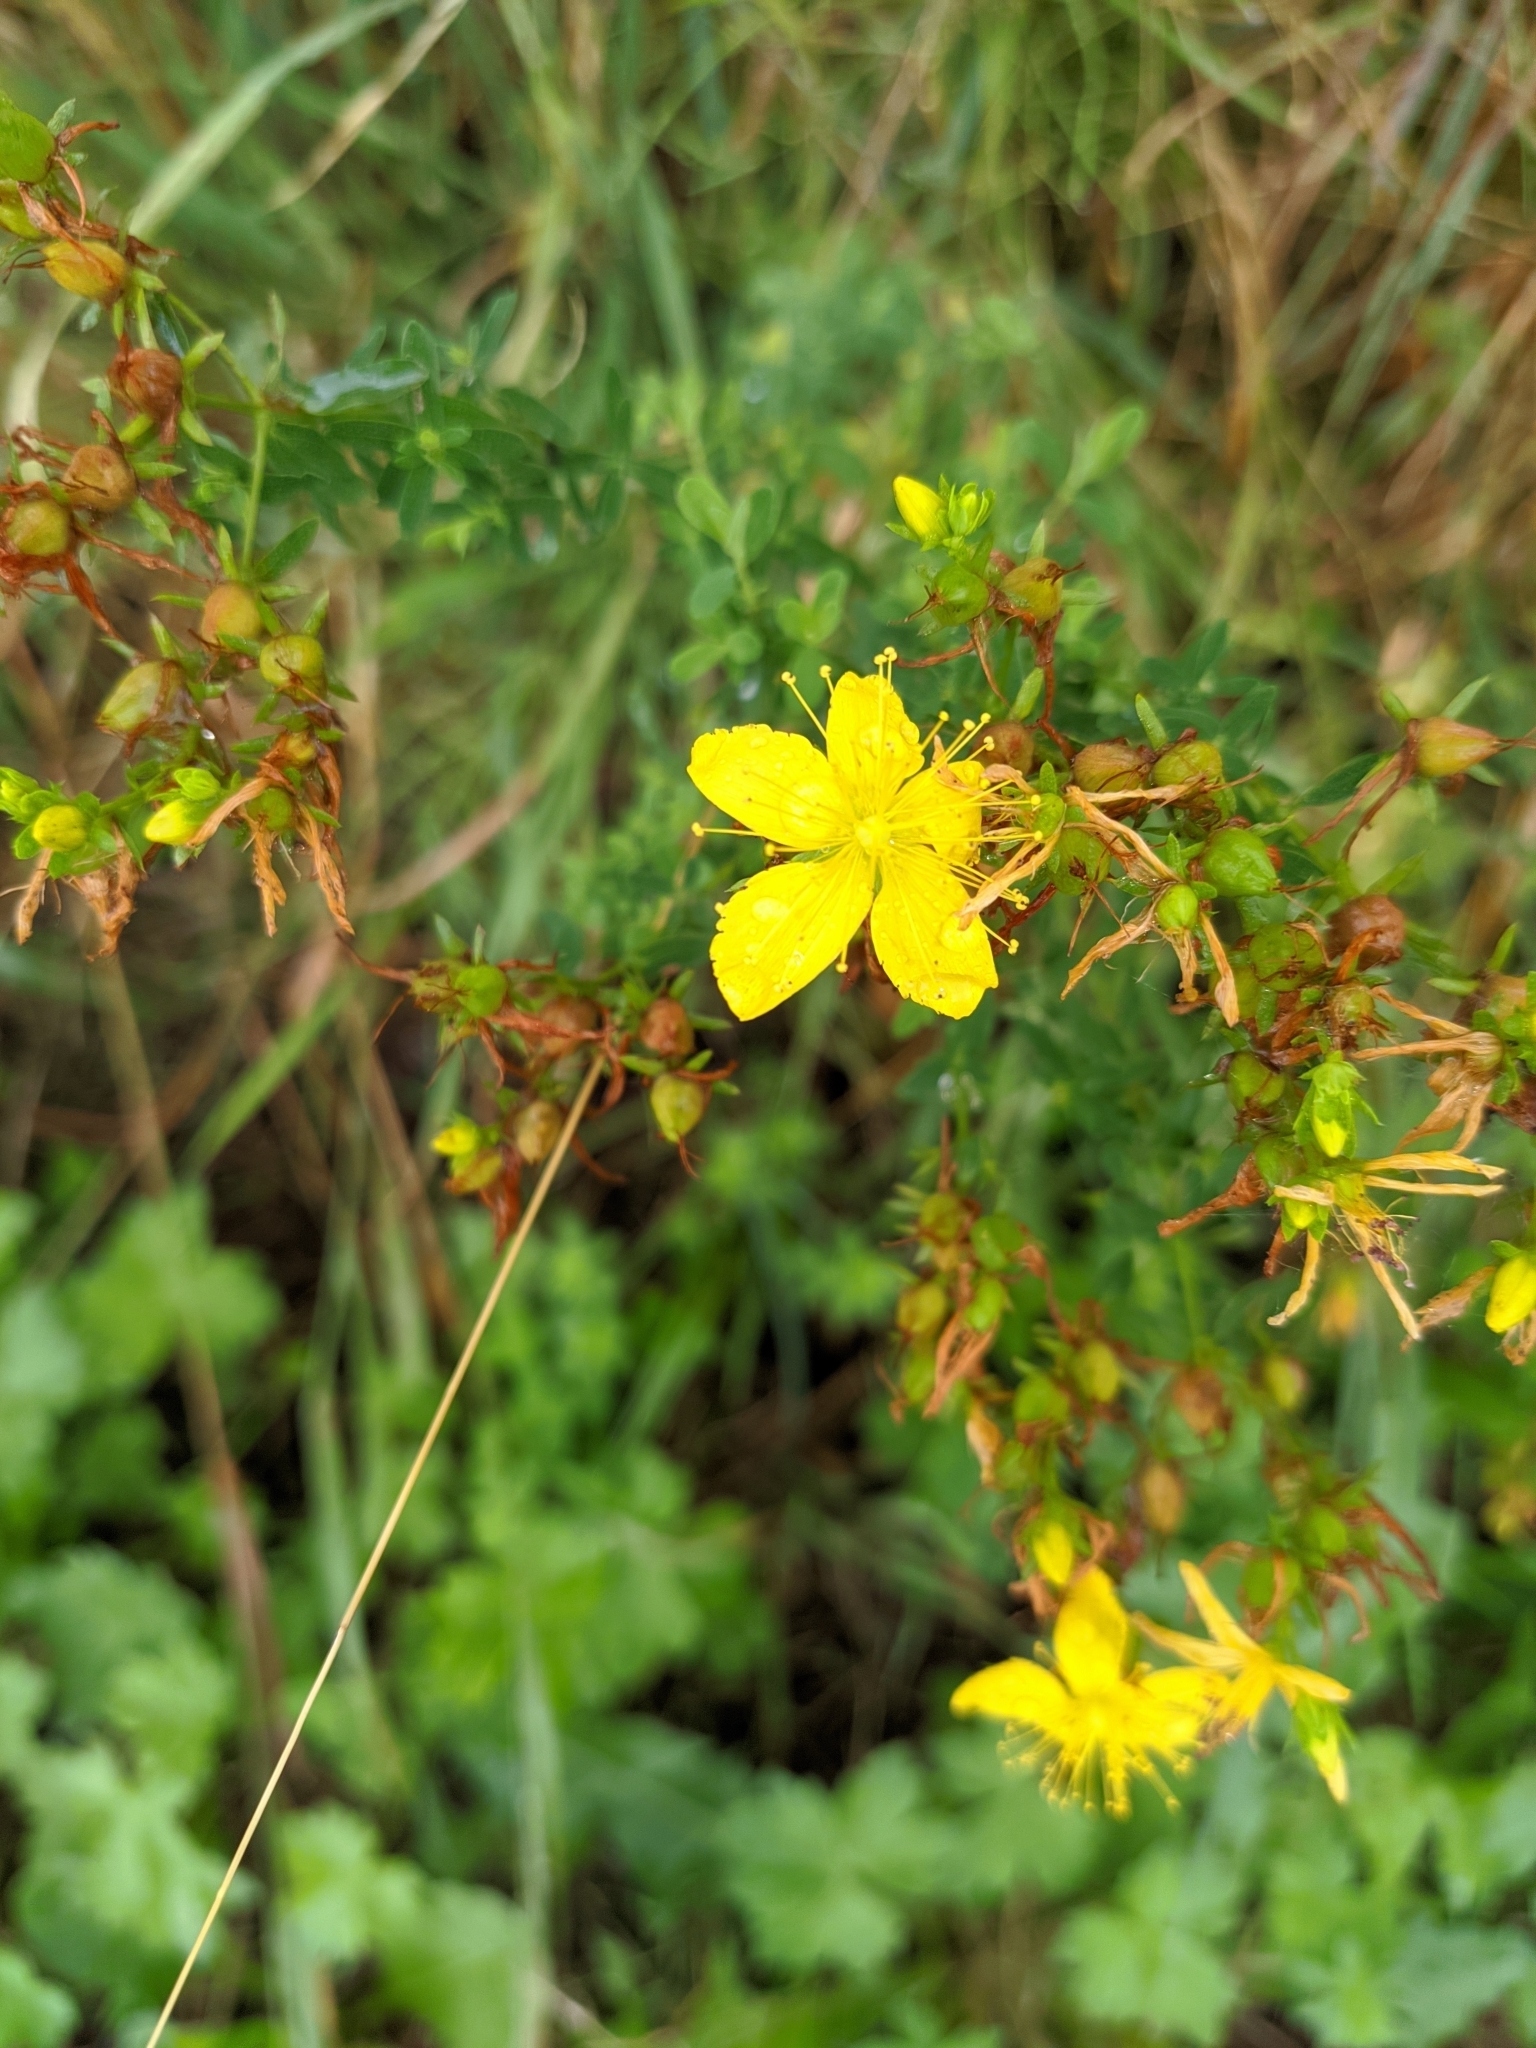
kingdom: Plantae
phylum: Tracheophyta
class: Magnoliopsida
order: Malpighiales
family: Hypericaceae
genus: Hypericum
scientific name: Hypericum perforatum
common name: Common st. johnswort
